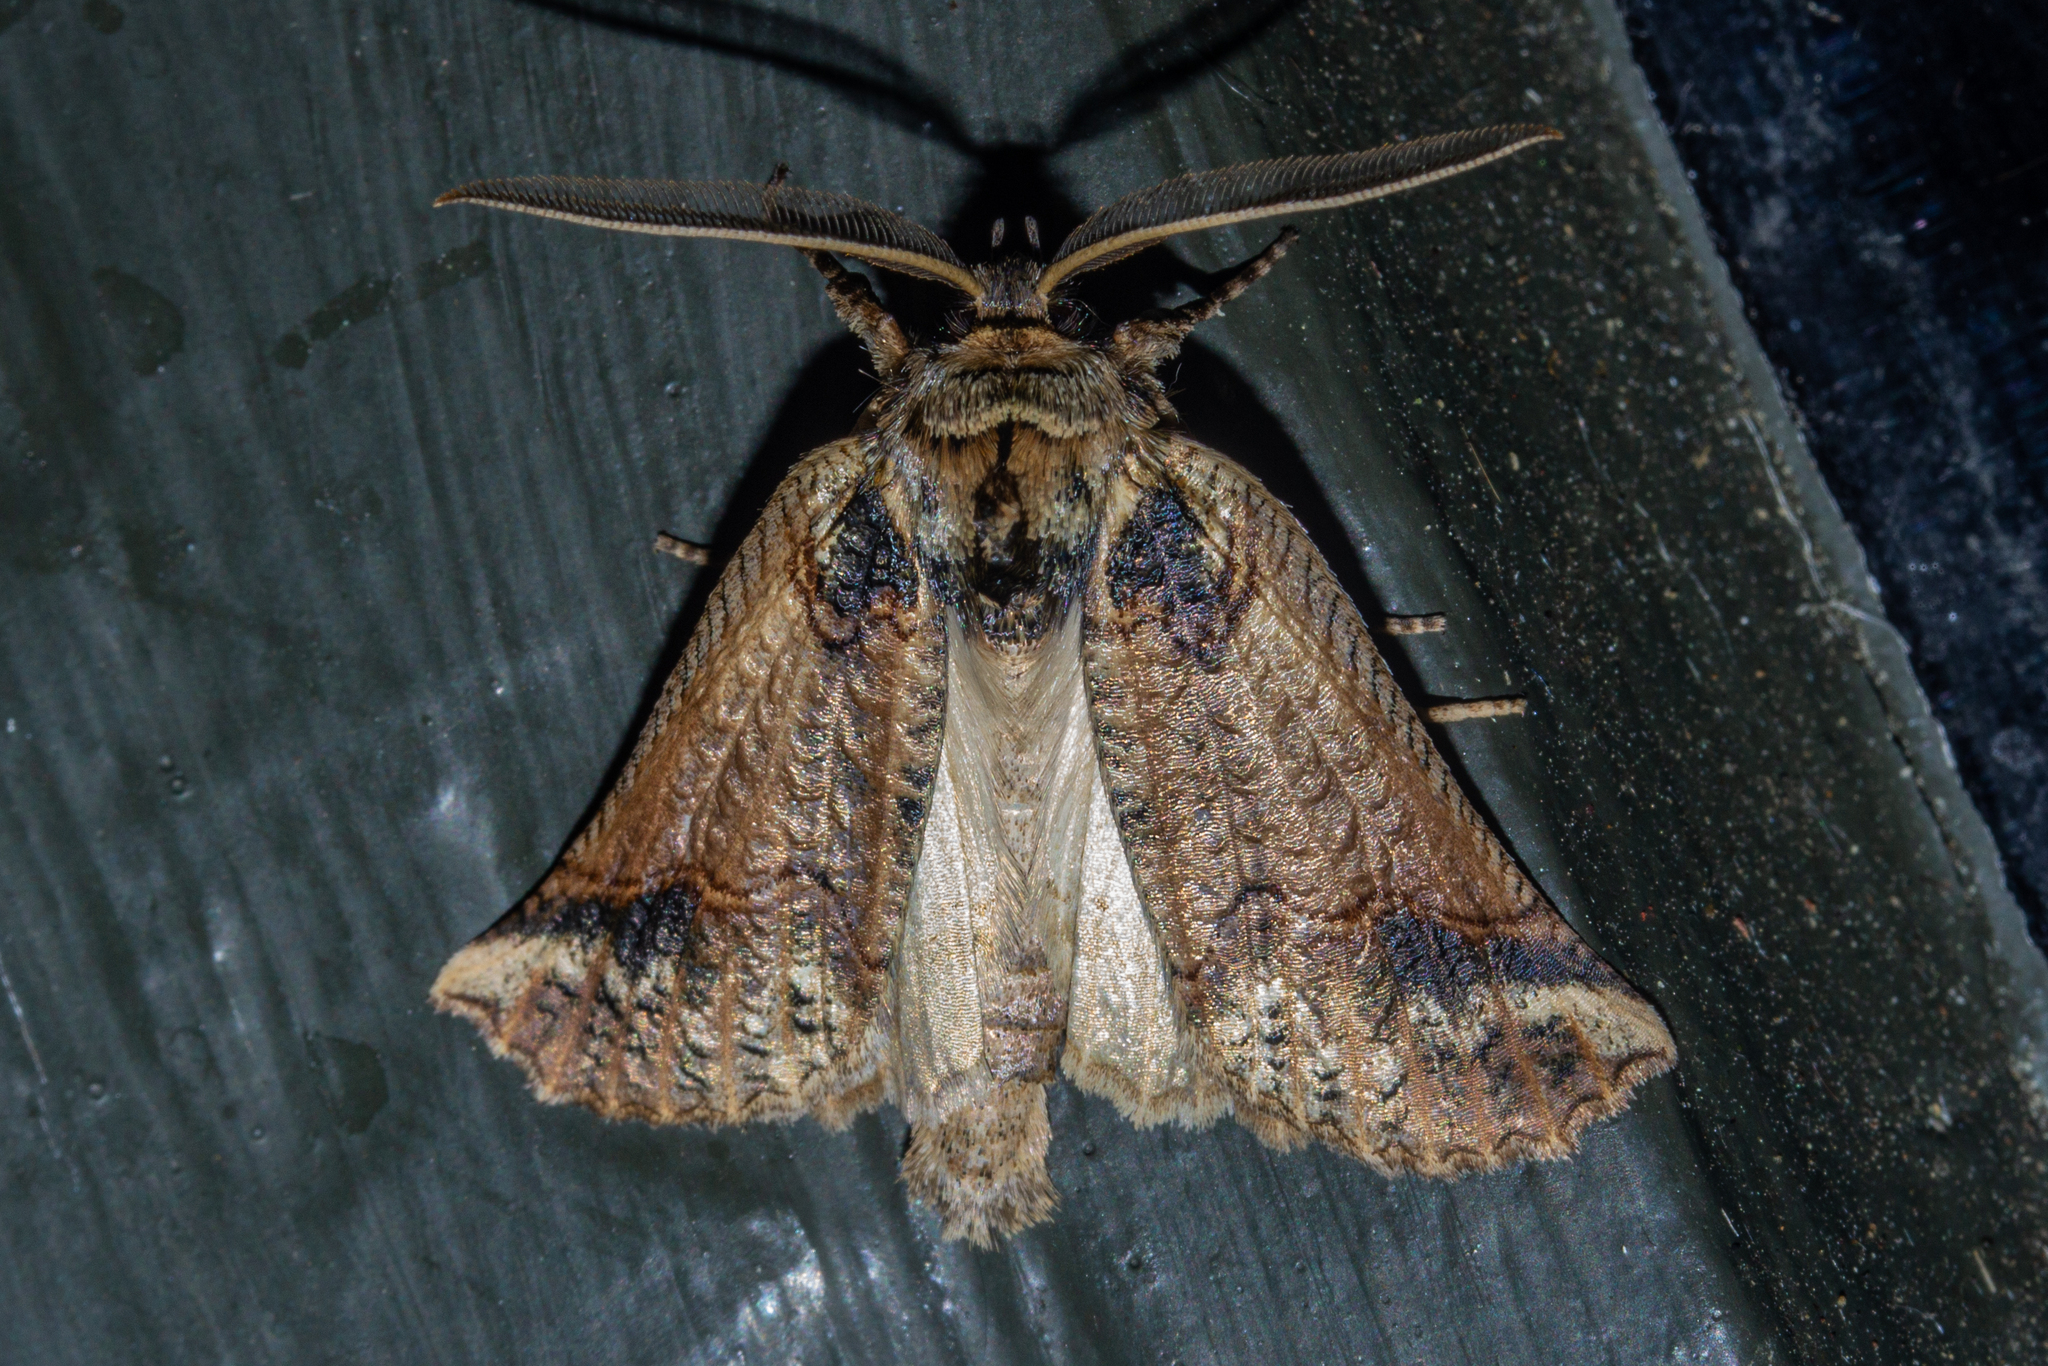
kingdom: Animalia
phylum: Arthropoda
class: Insecta
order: Lepidoptera
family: Geometridae
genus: Declana
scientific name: Declana
